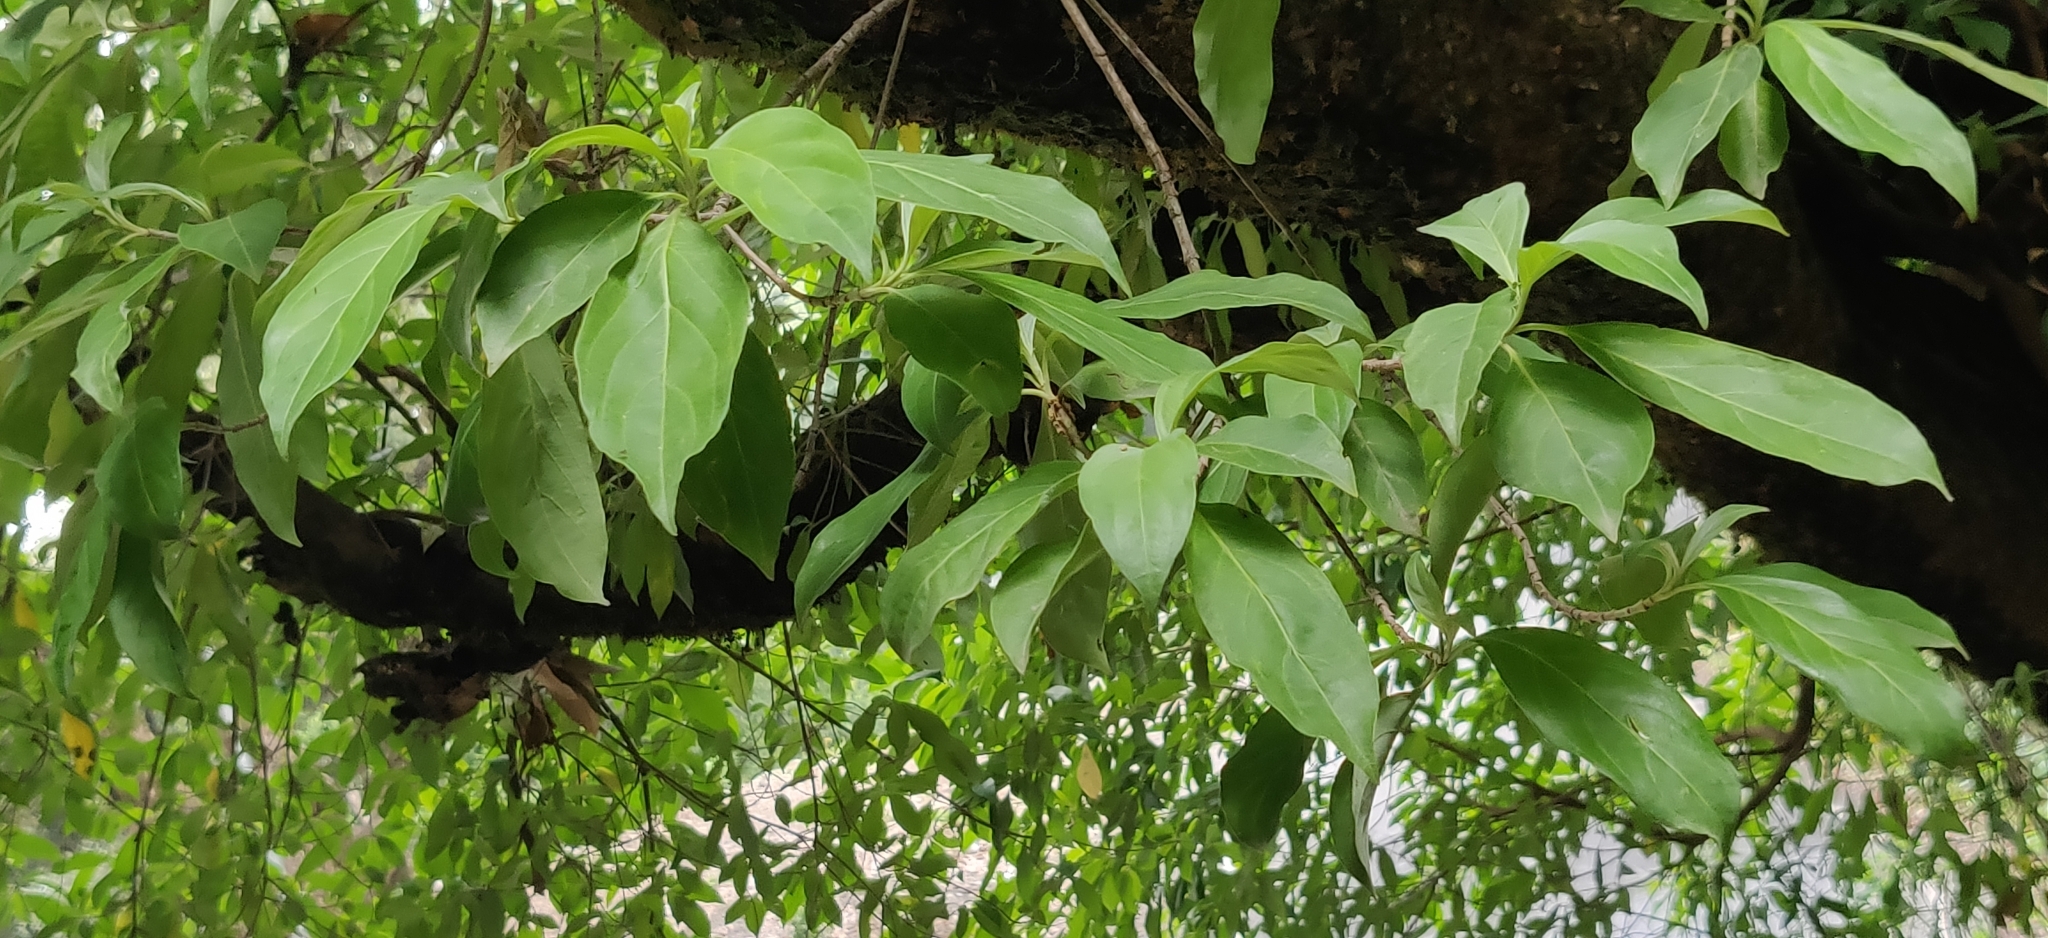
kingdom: Plantae
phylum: Tracheophyta
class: Magnoliopsida
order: Cornales
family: Cornaceae
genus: Cornus
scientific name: Cornus capitata
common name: Bentham's cornel
